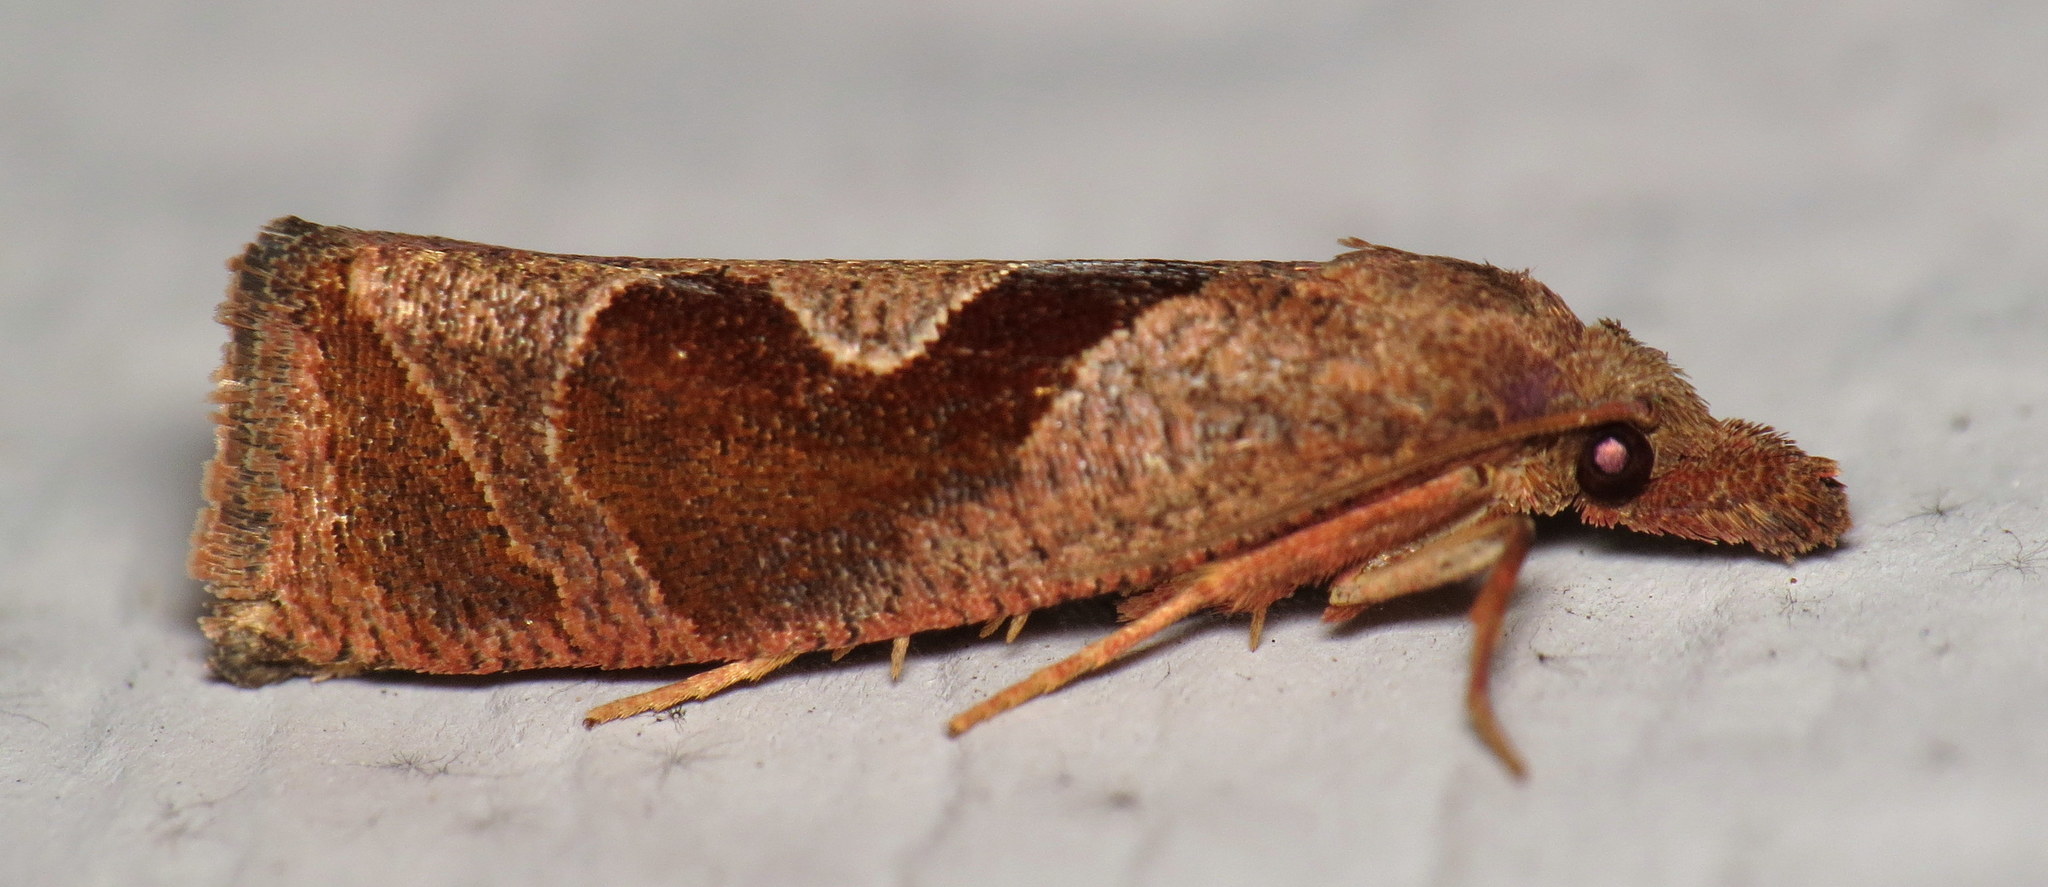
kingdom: Animalia
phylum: Arthropoda
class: Insecta
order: Lepidoptera
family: Tortricidae
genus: Pelochrista
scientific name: Pelochrista similiana
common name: Similar eucosma
